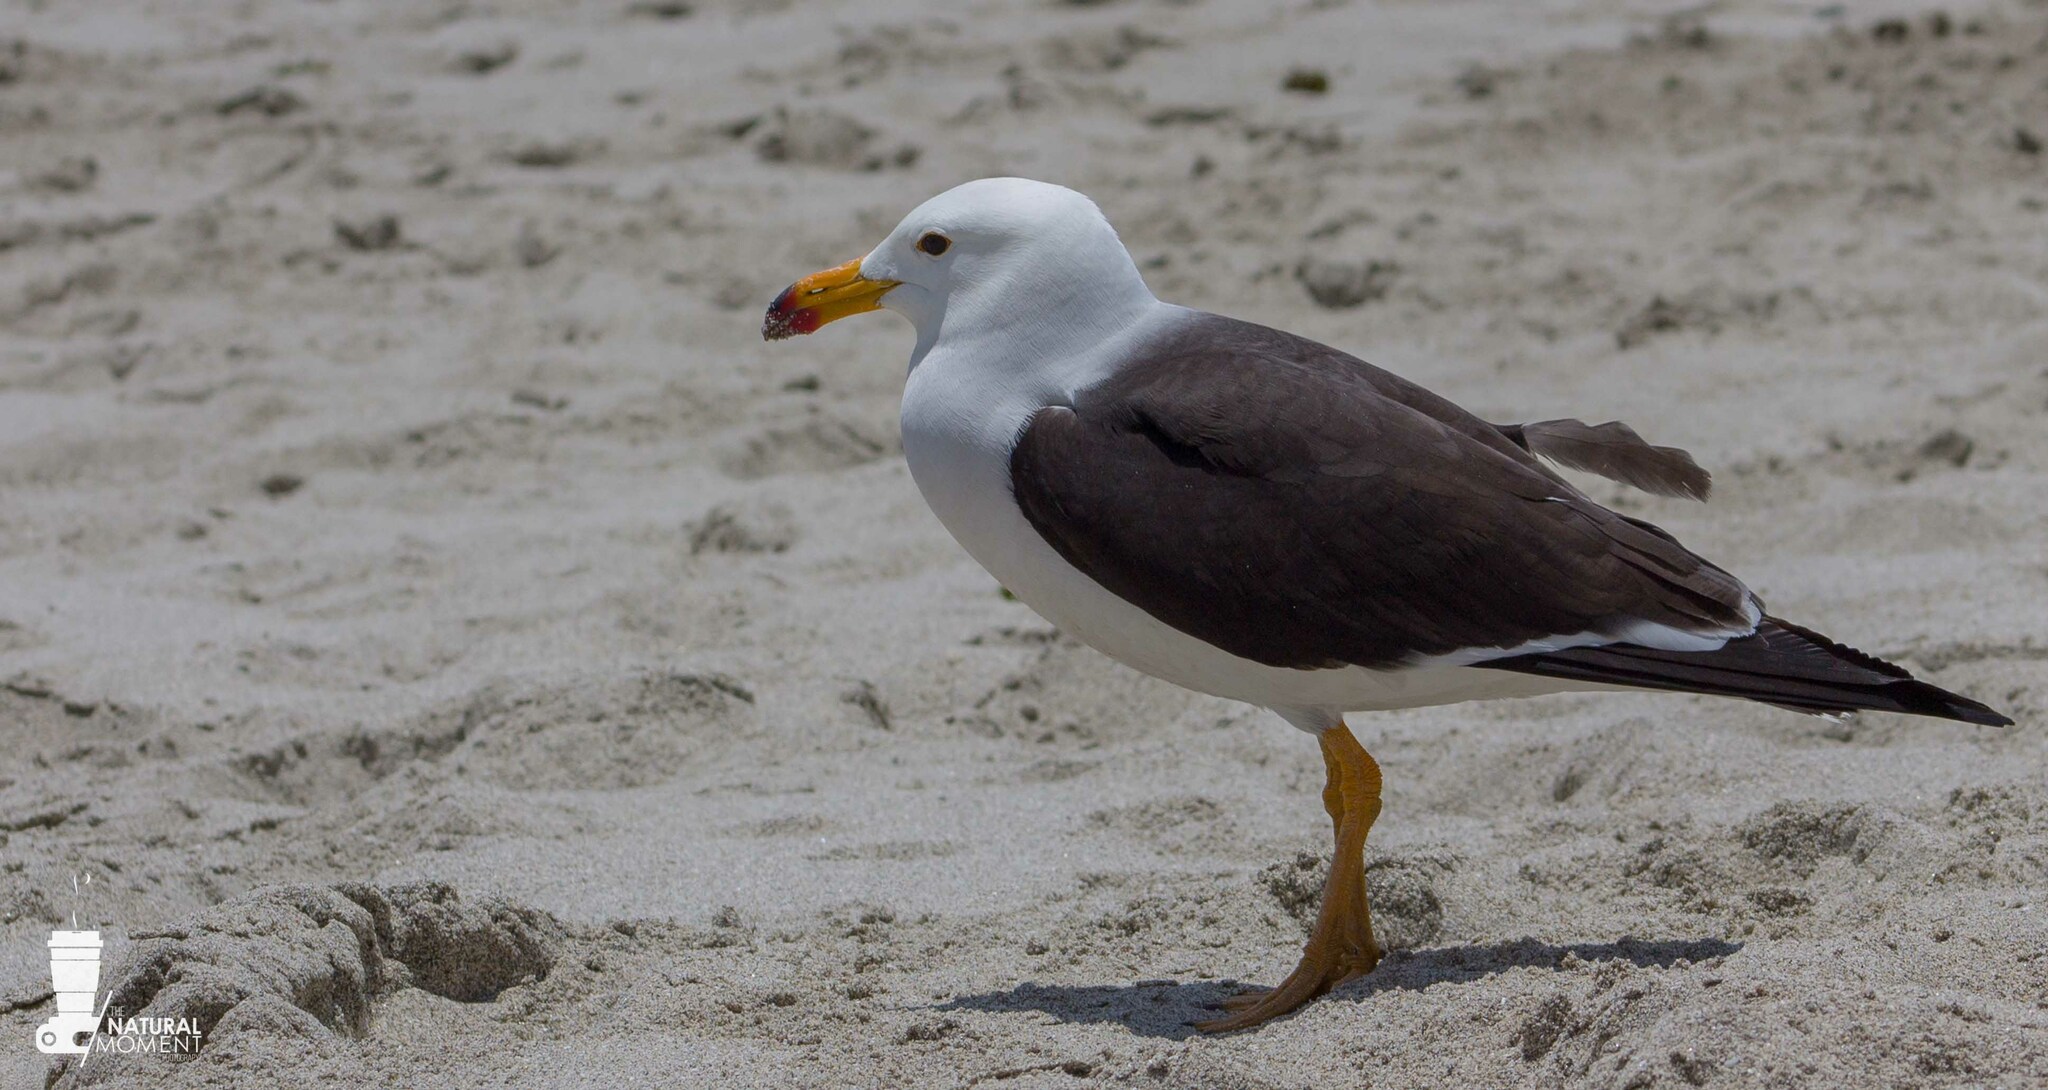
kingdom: Animalia
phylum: Chordata
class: Aves
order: Charadriiformes
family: Laridae
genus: Larus
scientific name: Larus belcheri
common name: Belcher's gull
